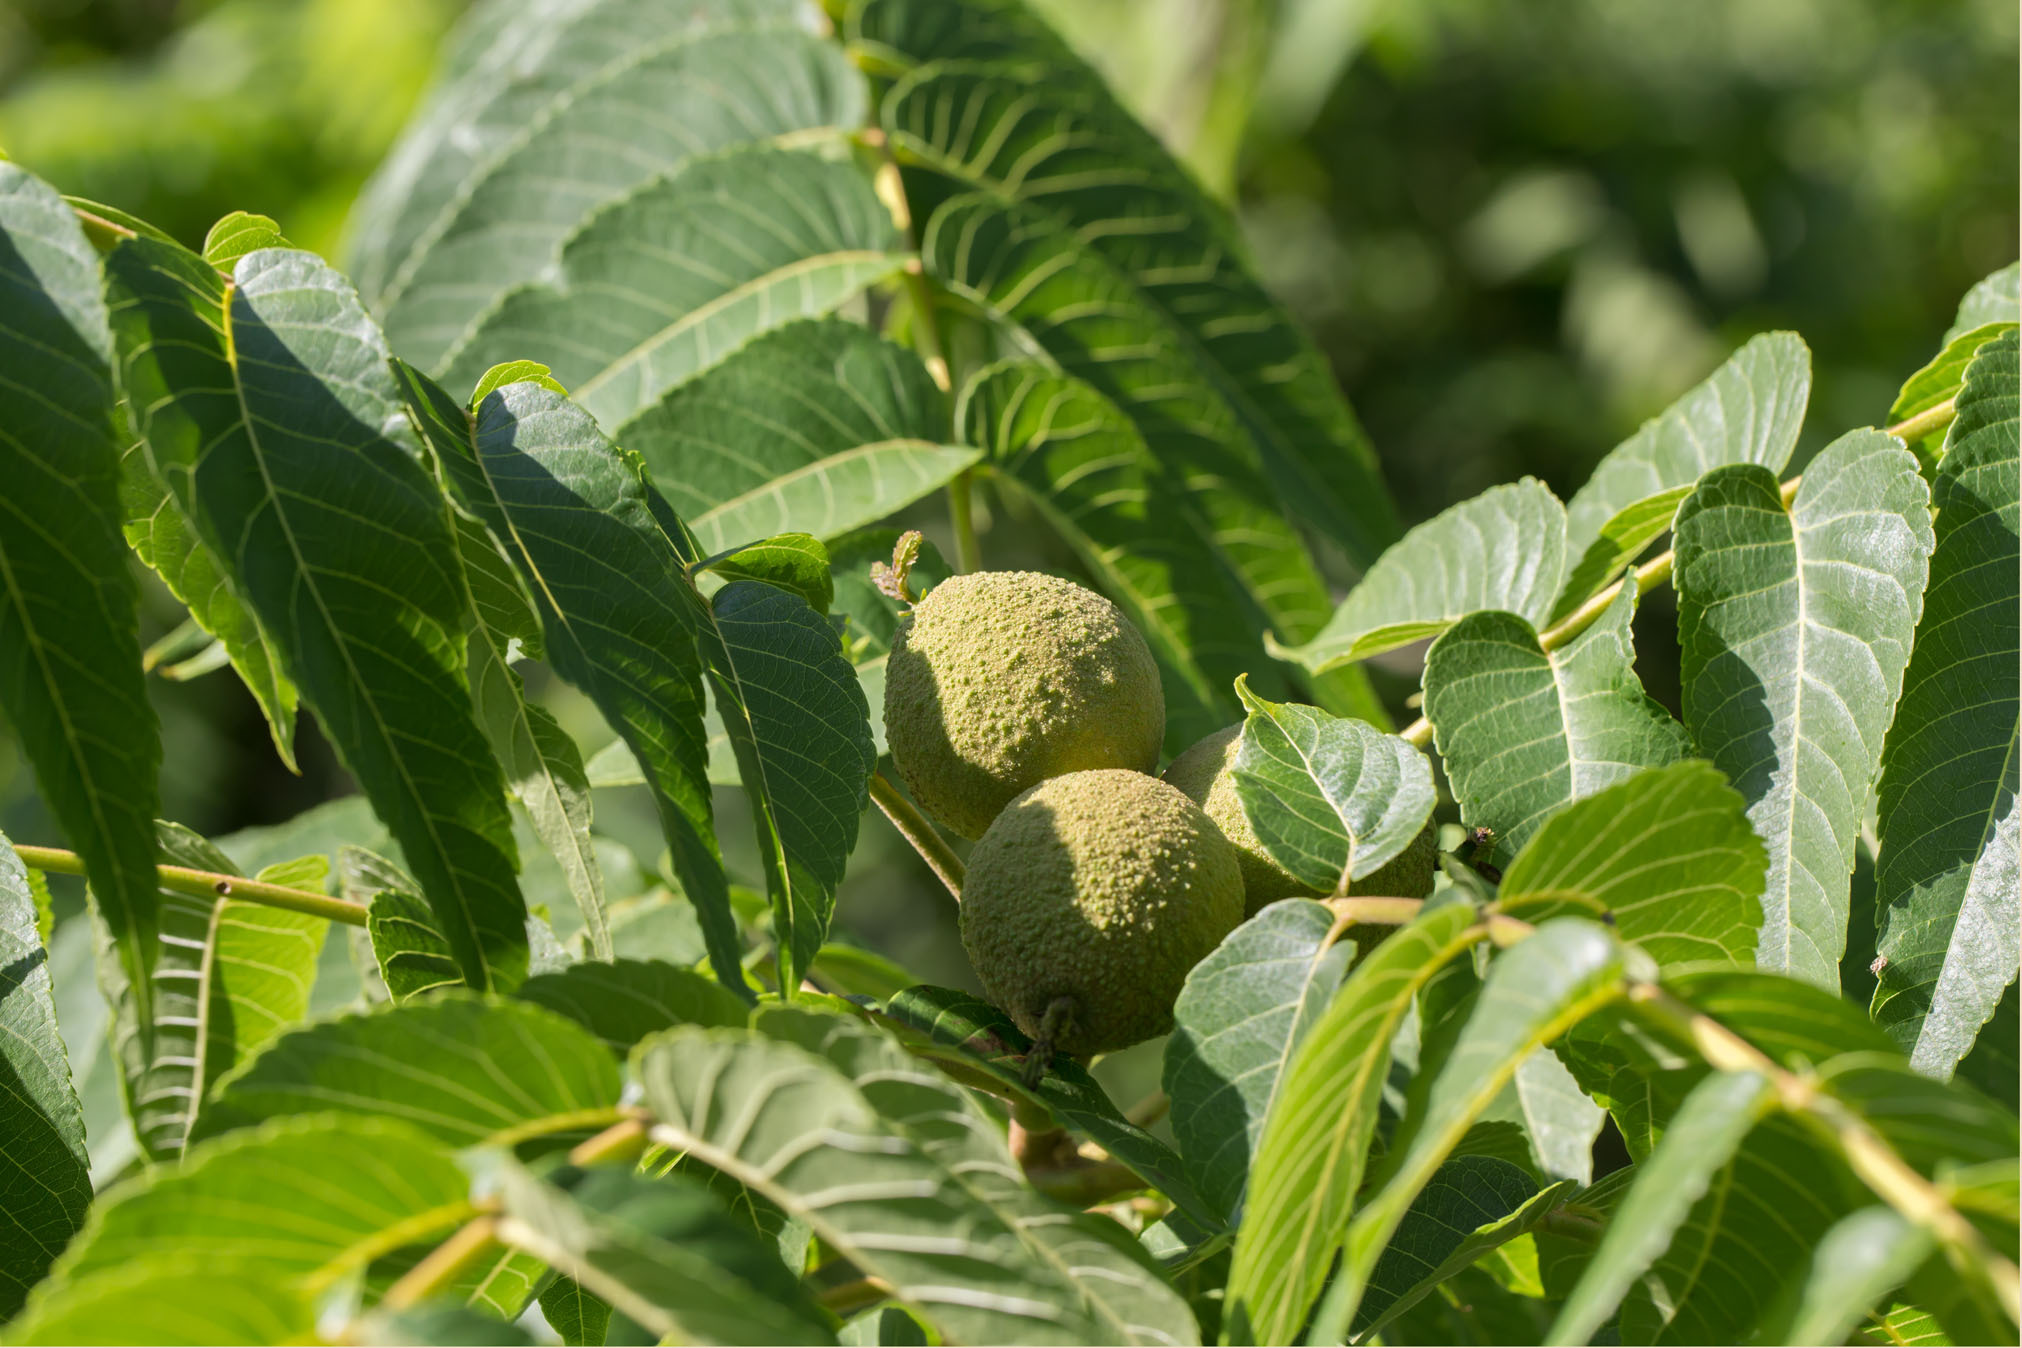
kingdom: Plantae
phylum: Tracheophyta
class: Magnoliopsida
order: Fagales
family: Juglandaceae
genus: Juglans
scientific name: Juglans nigra
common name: Black walnut
